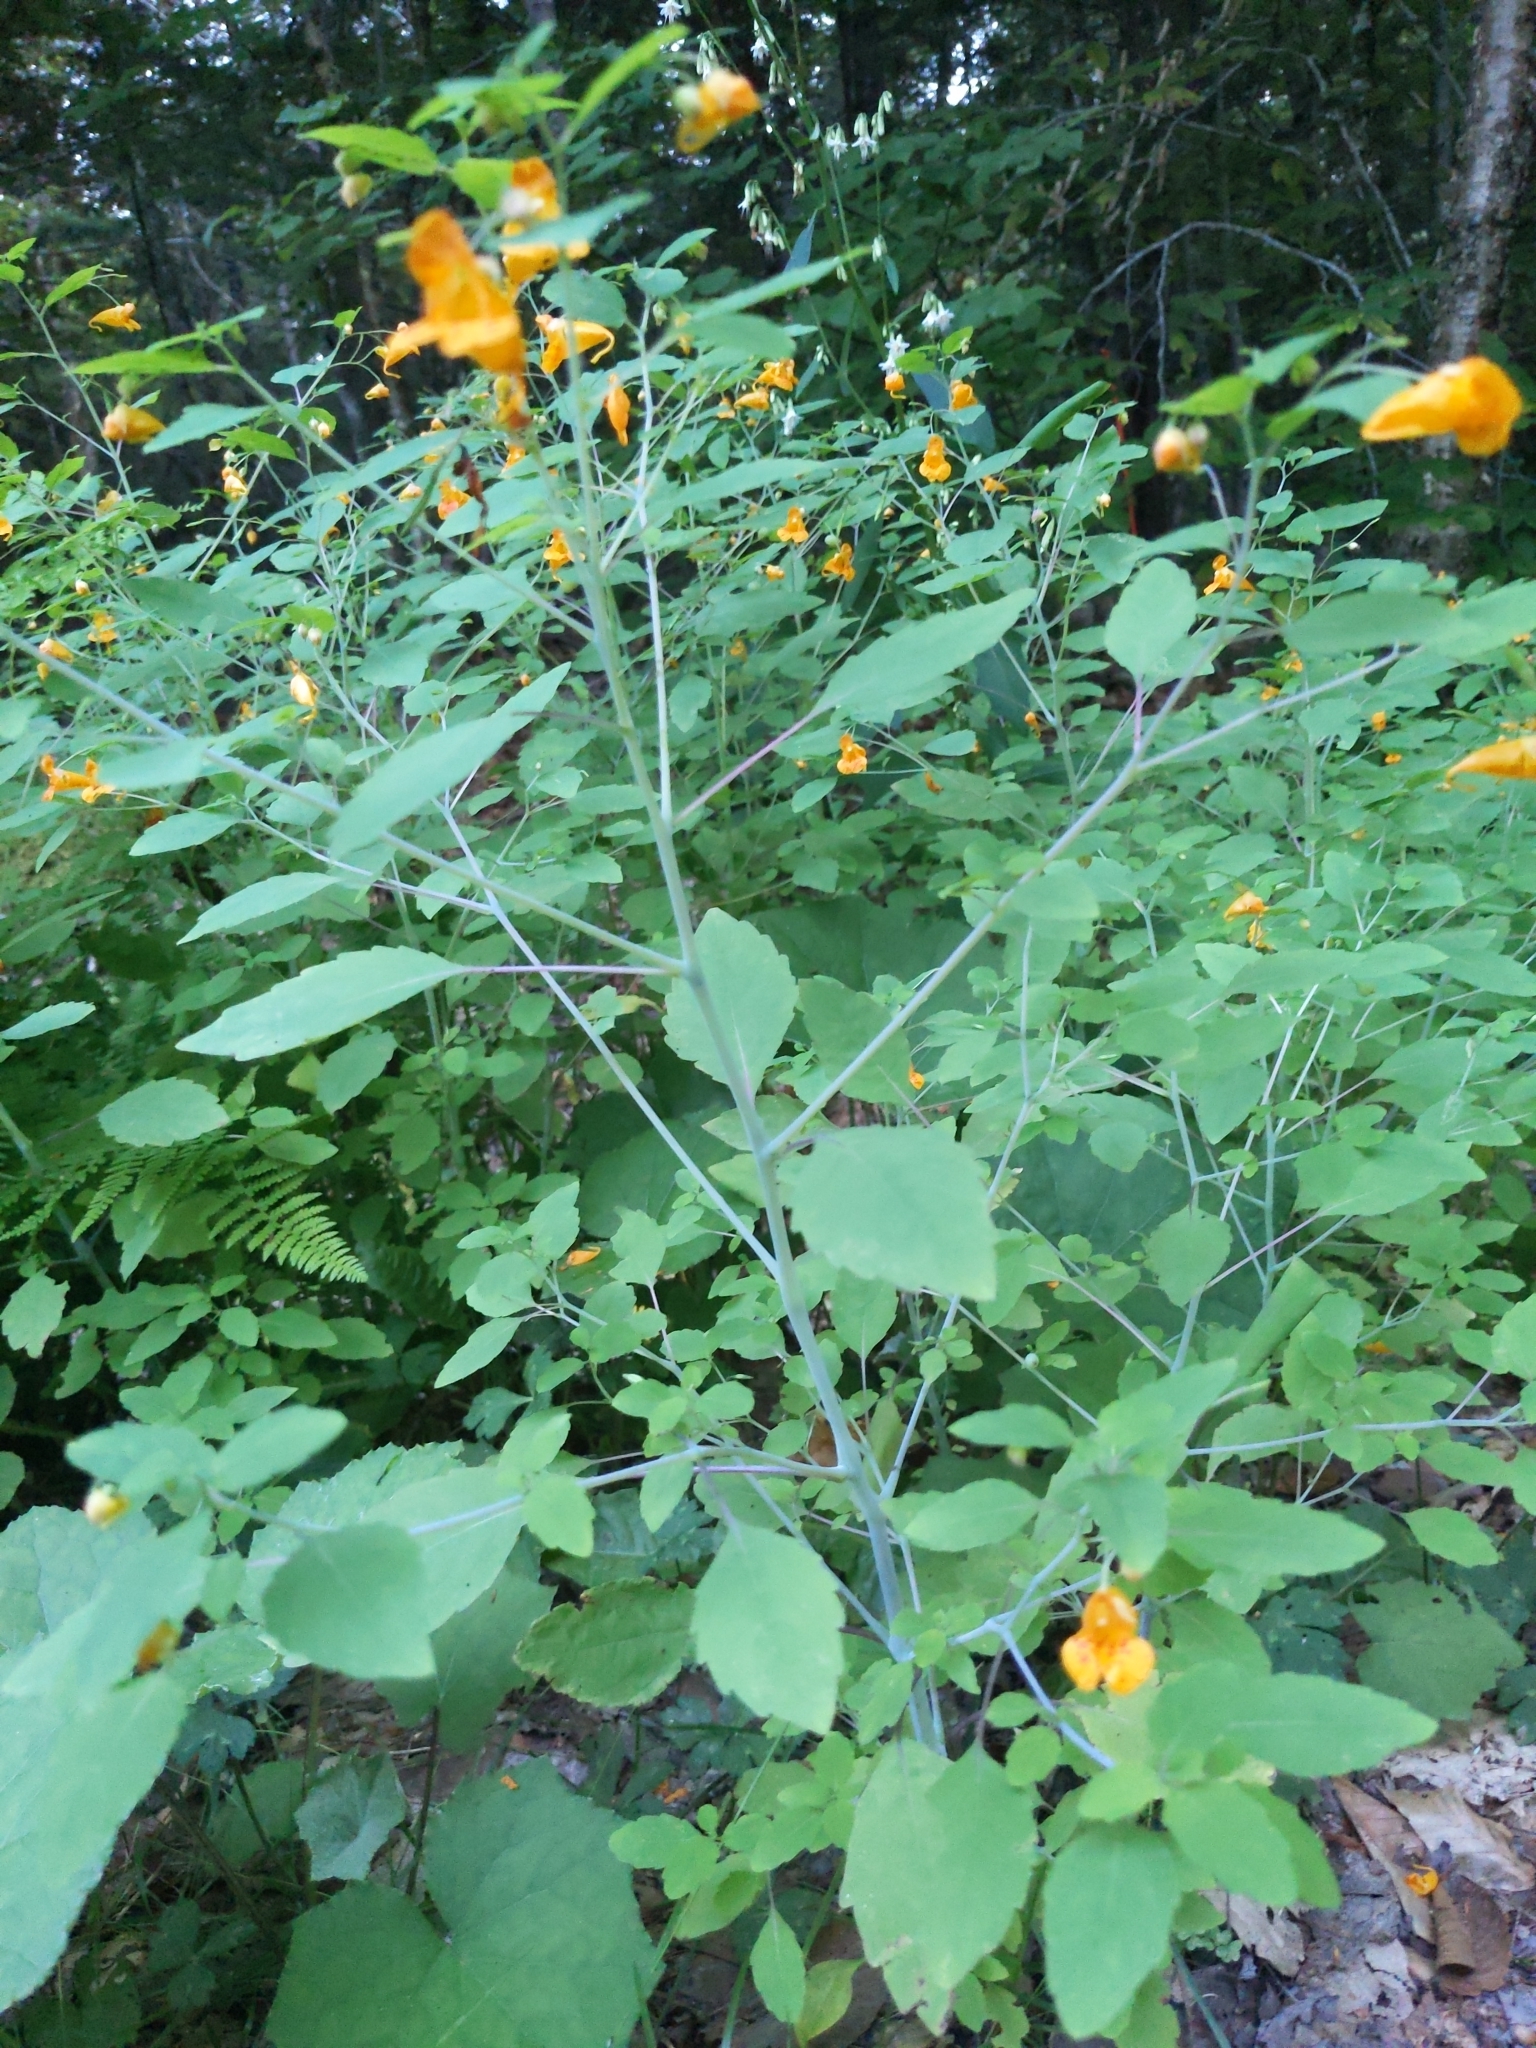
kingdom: Plantae
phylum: Tracheophyta
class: Magnoliopsida
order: Ericales
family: Balsaminaceae
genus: Impatiens
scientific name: Impatiens capensis
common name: Orange balsam
